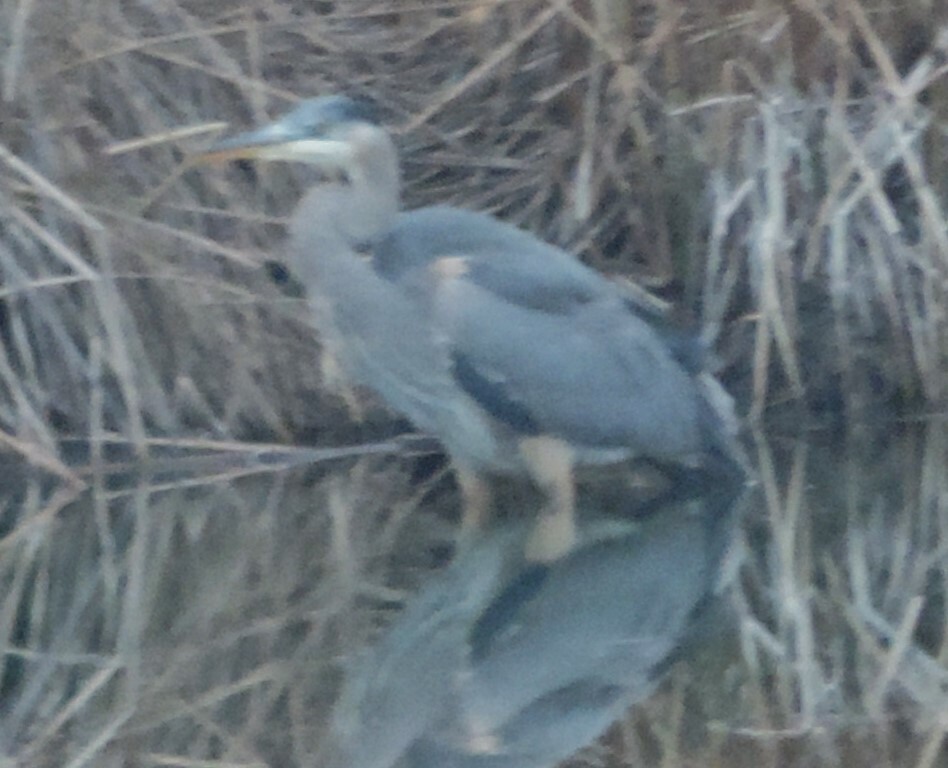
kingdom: Animalia
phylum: Chordata
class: Aves
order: Pelecaniformes
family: Ardeidae
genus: Ardea
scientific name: Ardea herodias
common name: Great blue heron
